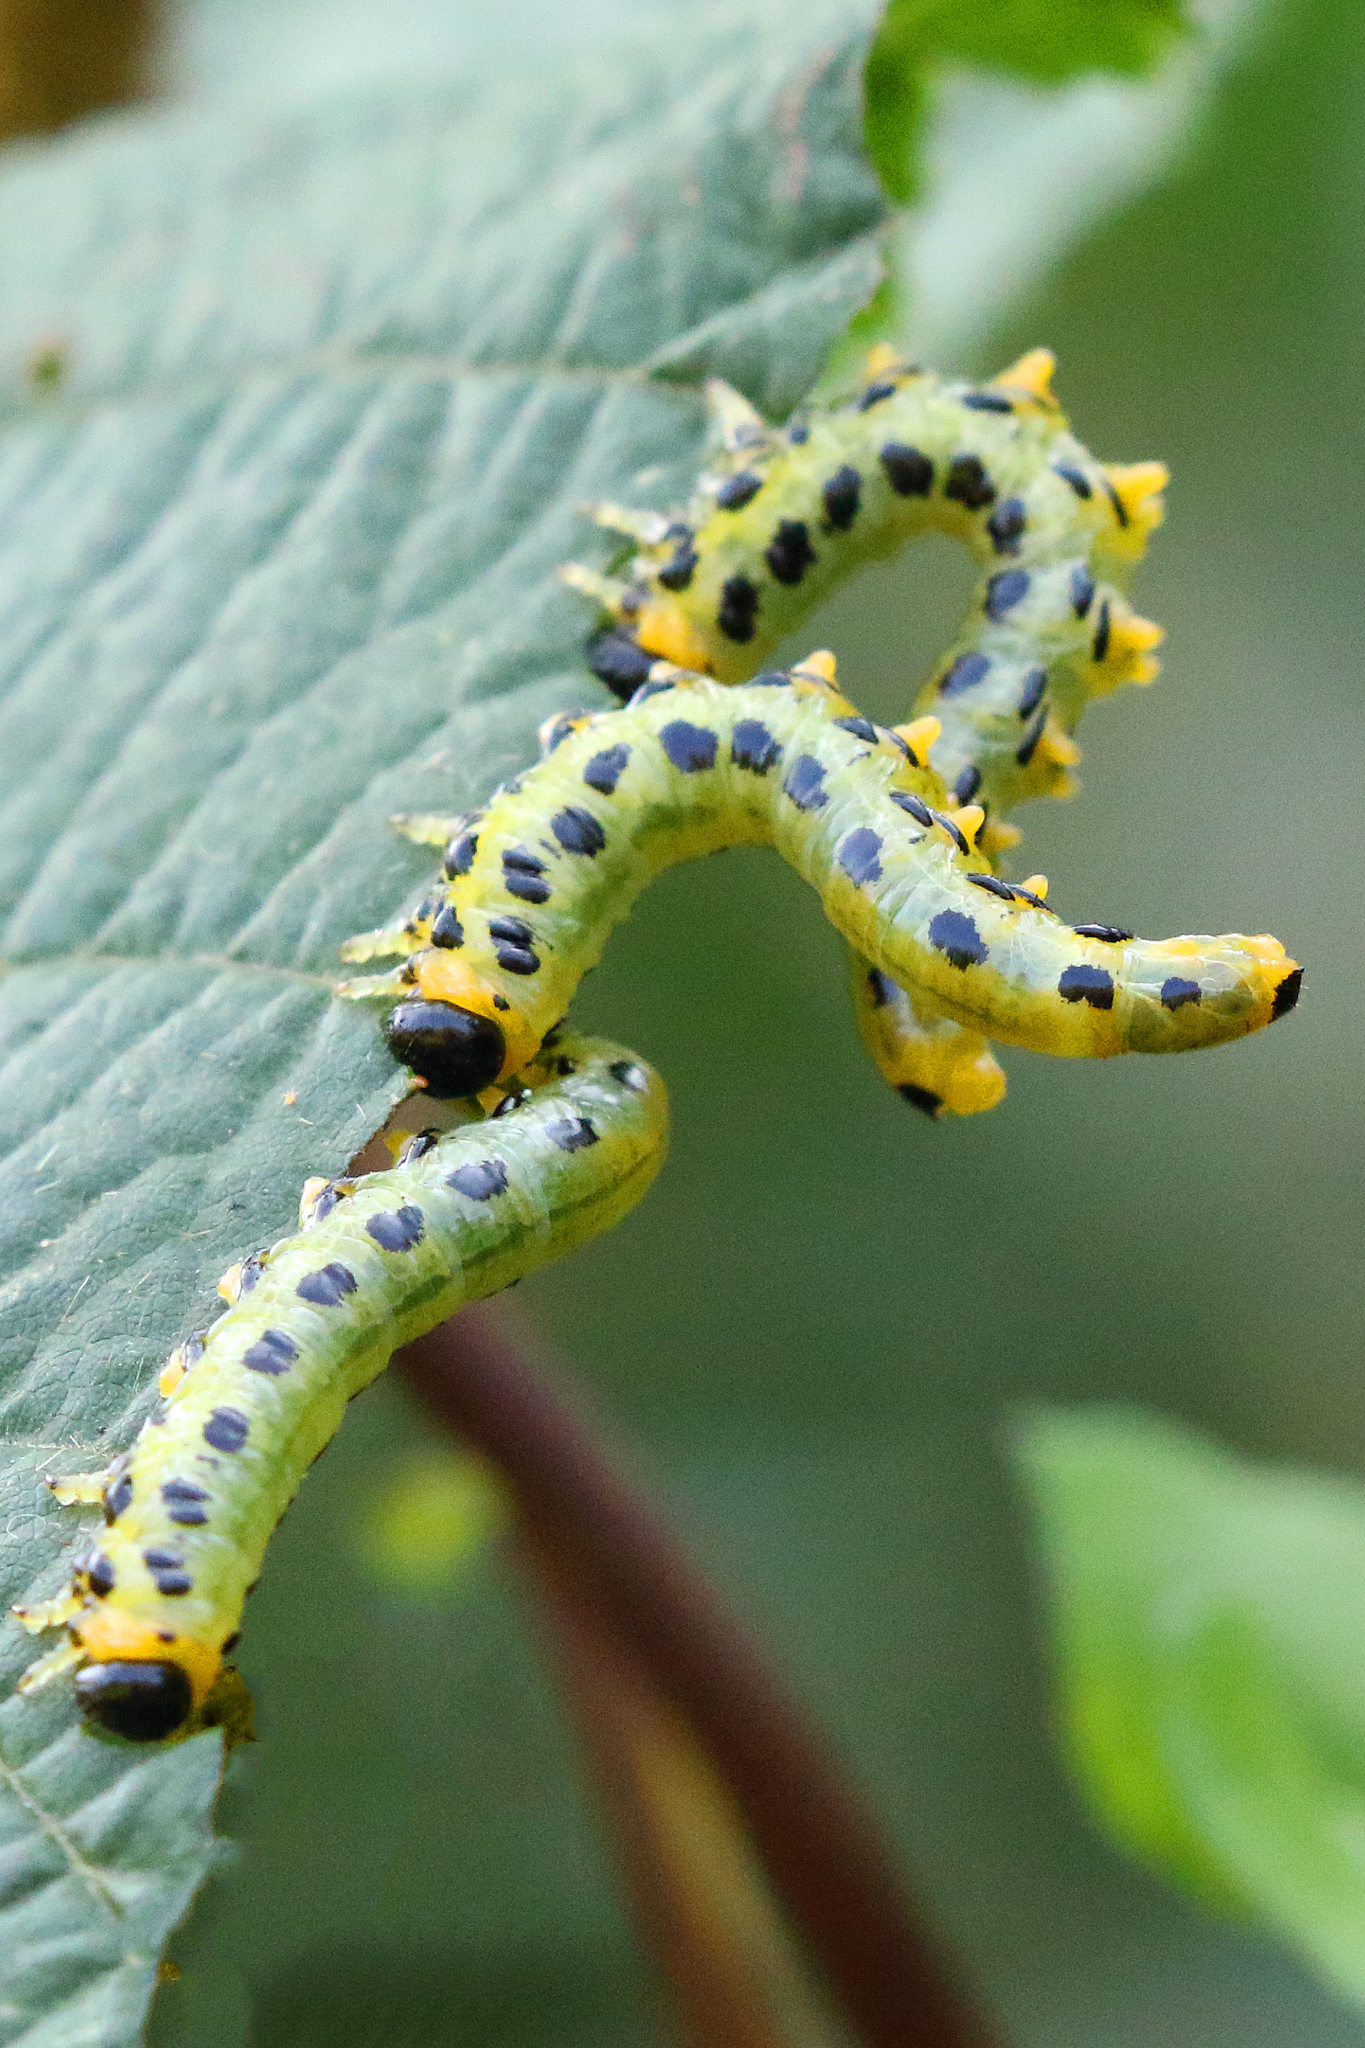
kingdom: Animalia
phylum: Arthropoda
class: Insecta
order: Hymenoptera
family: Tenthredinidae
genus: Craesus
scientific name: Craesus septentrionalis
